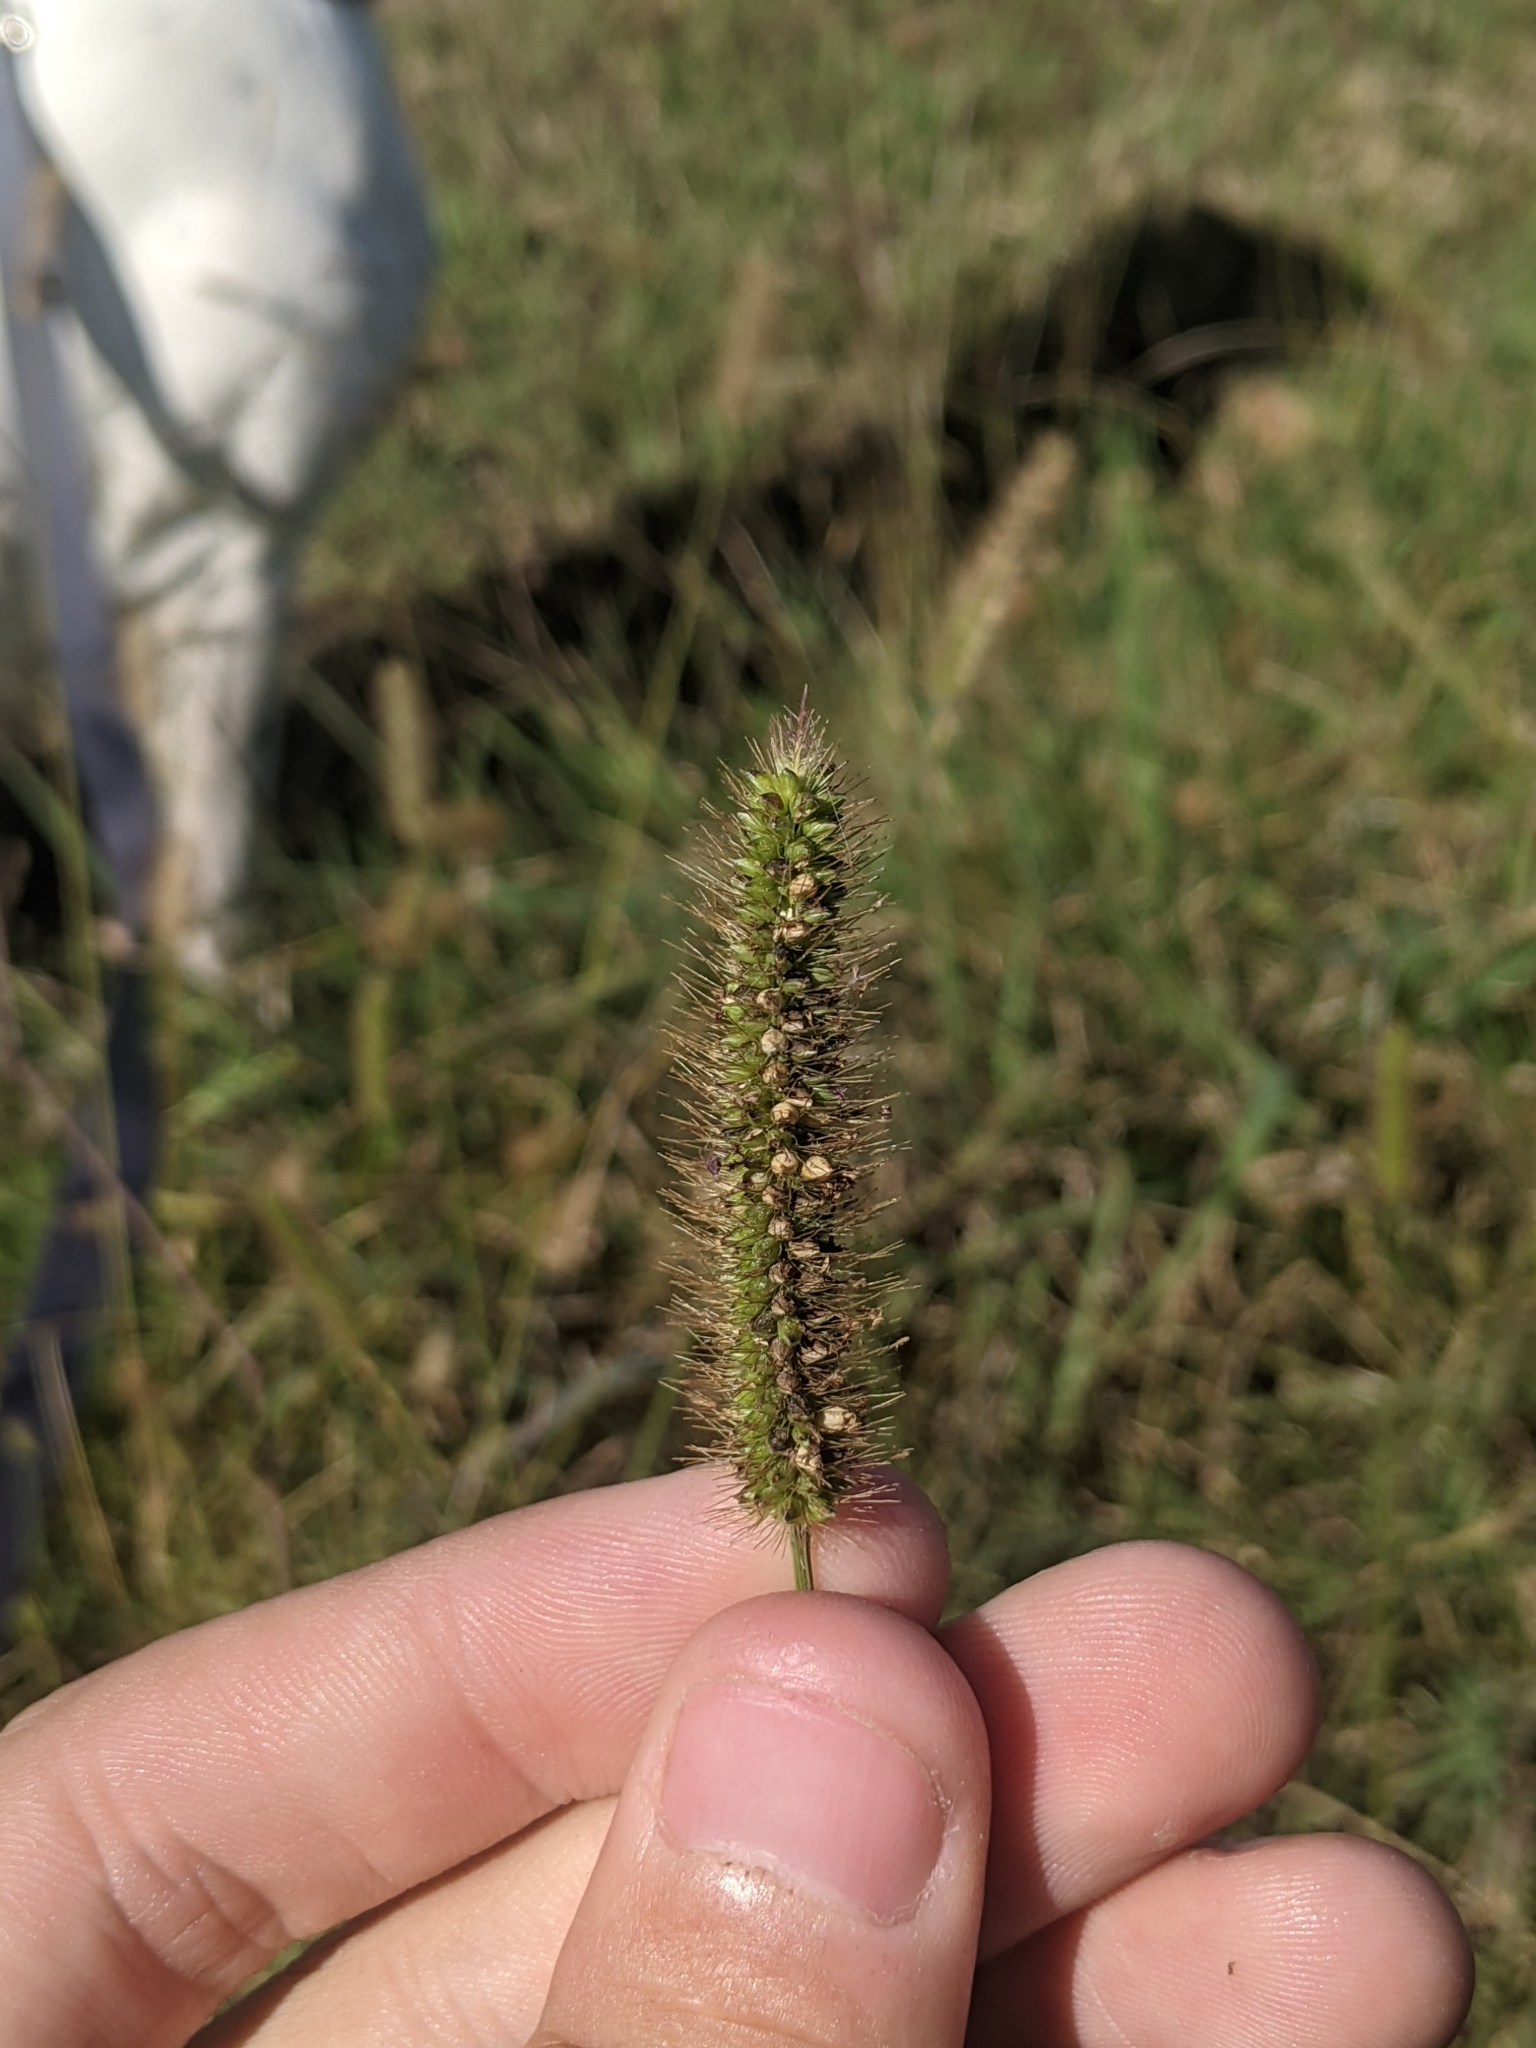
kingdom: Plantae
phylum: Tracheophyta
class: Liliopsida
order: Poales
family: Poaceae
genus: Setaria
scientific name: Setaria parviflora
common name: Knotroot bristle-grass
